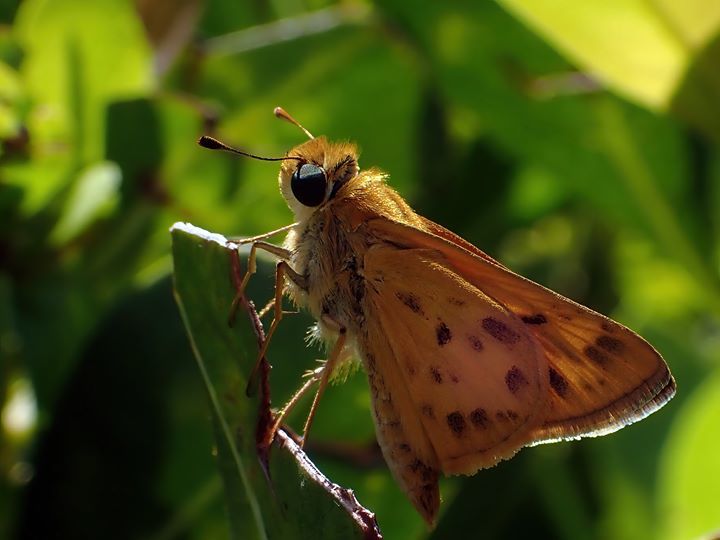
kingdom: Animalia
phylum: Arthropoda
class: Insecta
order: Lepidoptera
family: Hesperiidae
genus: Hylephila
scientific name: Hylephila phyleus
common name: Fiery skipper
